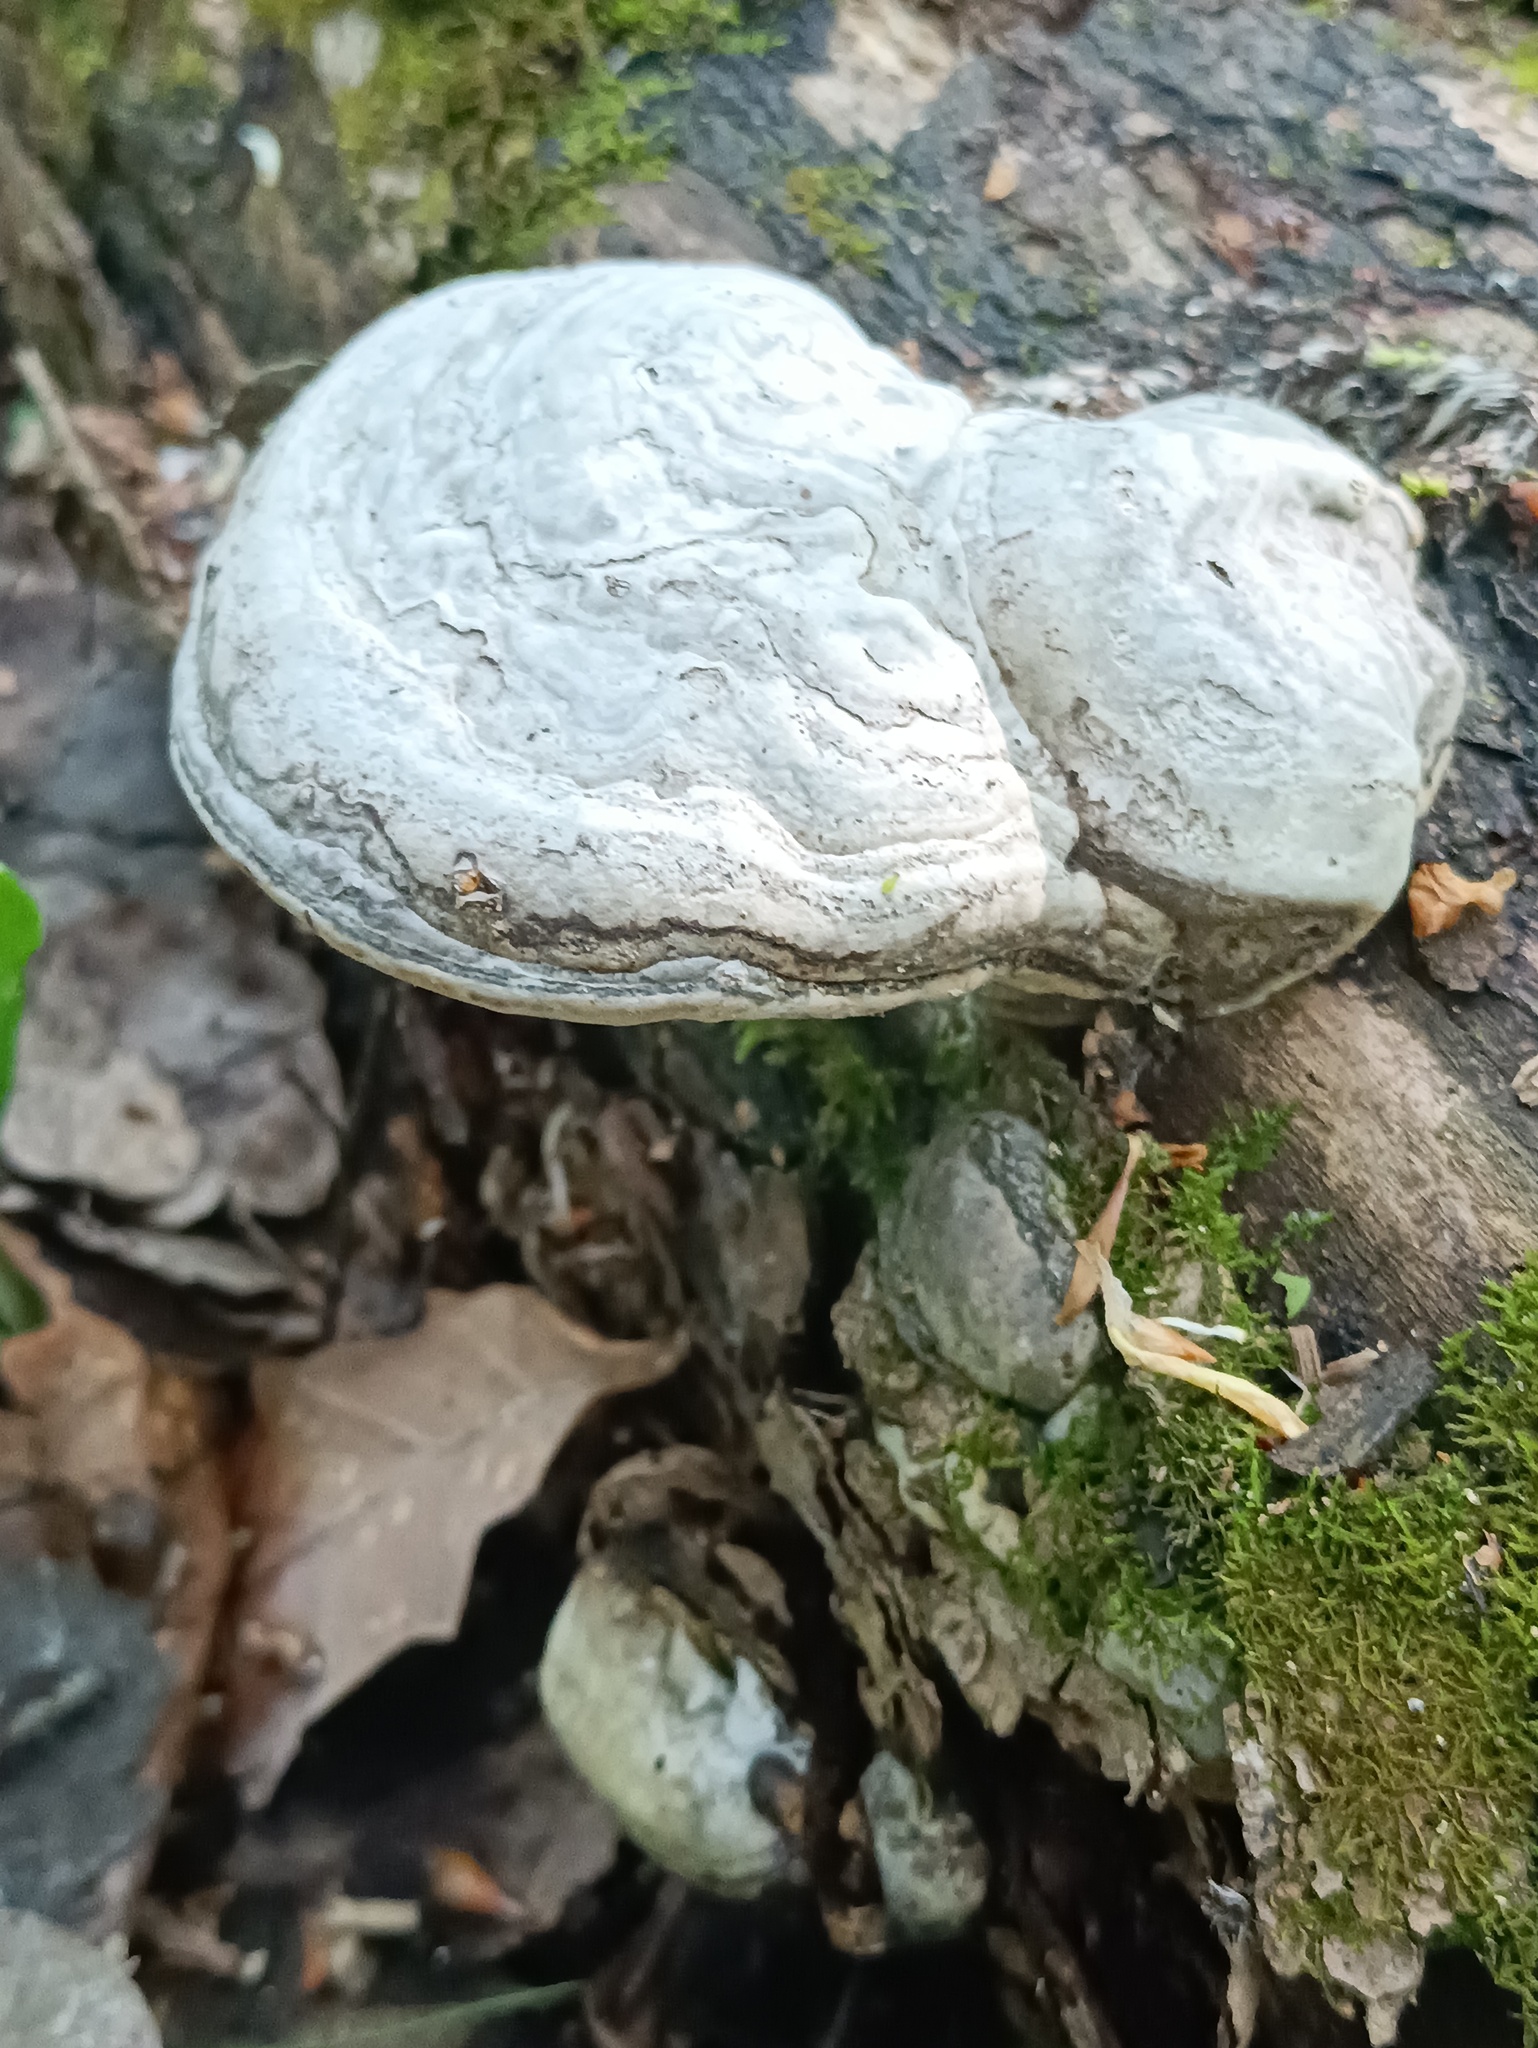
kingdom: Fungi
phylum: Basidiomycota
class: Agaricomycetes
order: Polyporales
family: Polyporaceae
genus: Fomes
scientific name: Fomes fomentarius
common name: Hoof fungus
